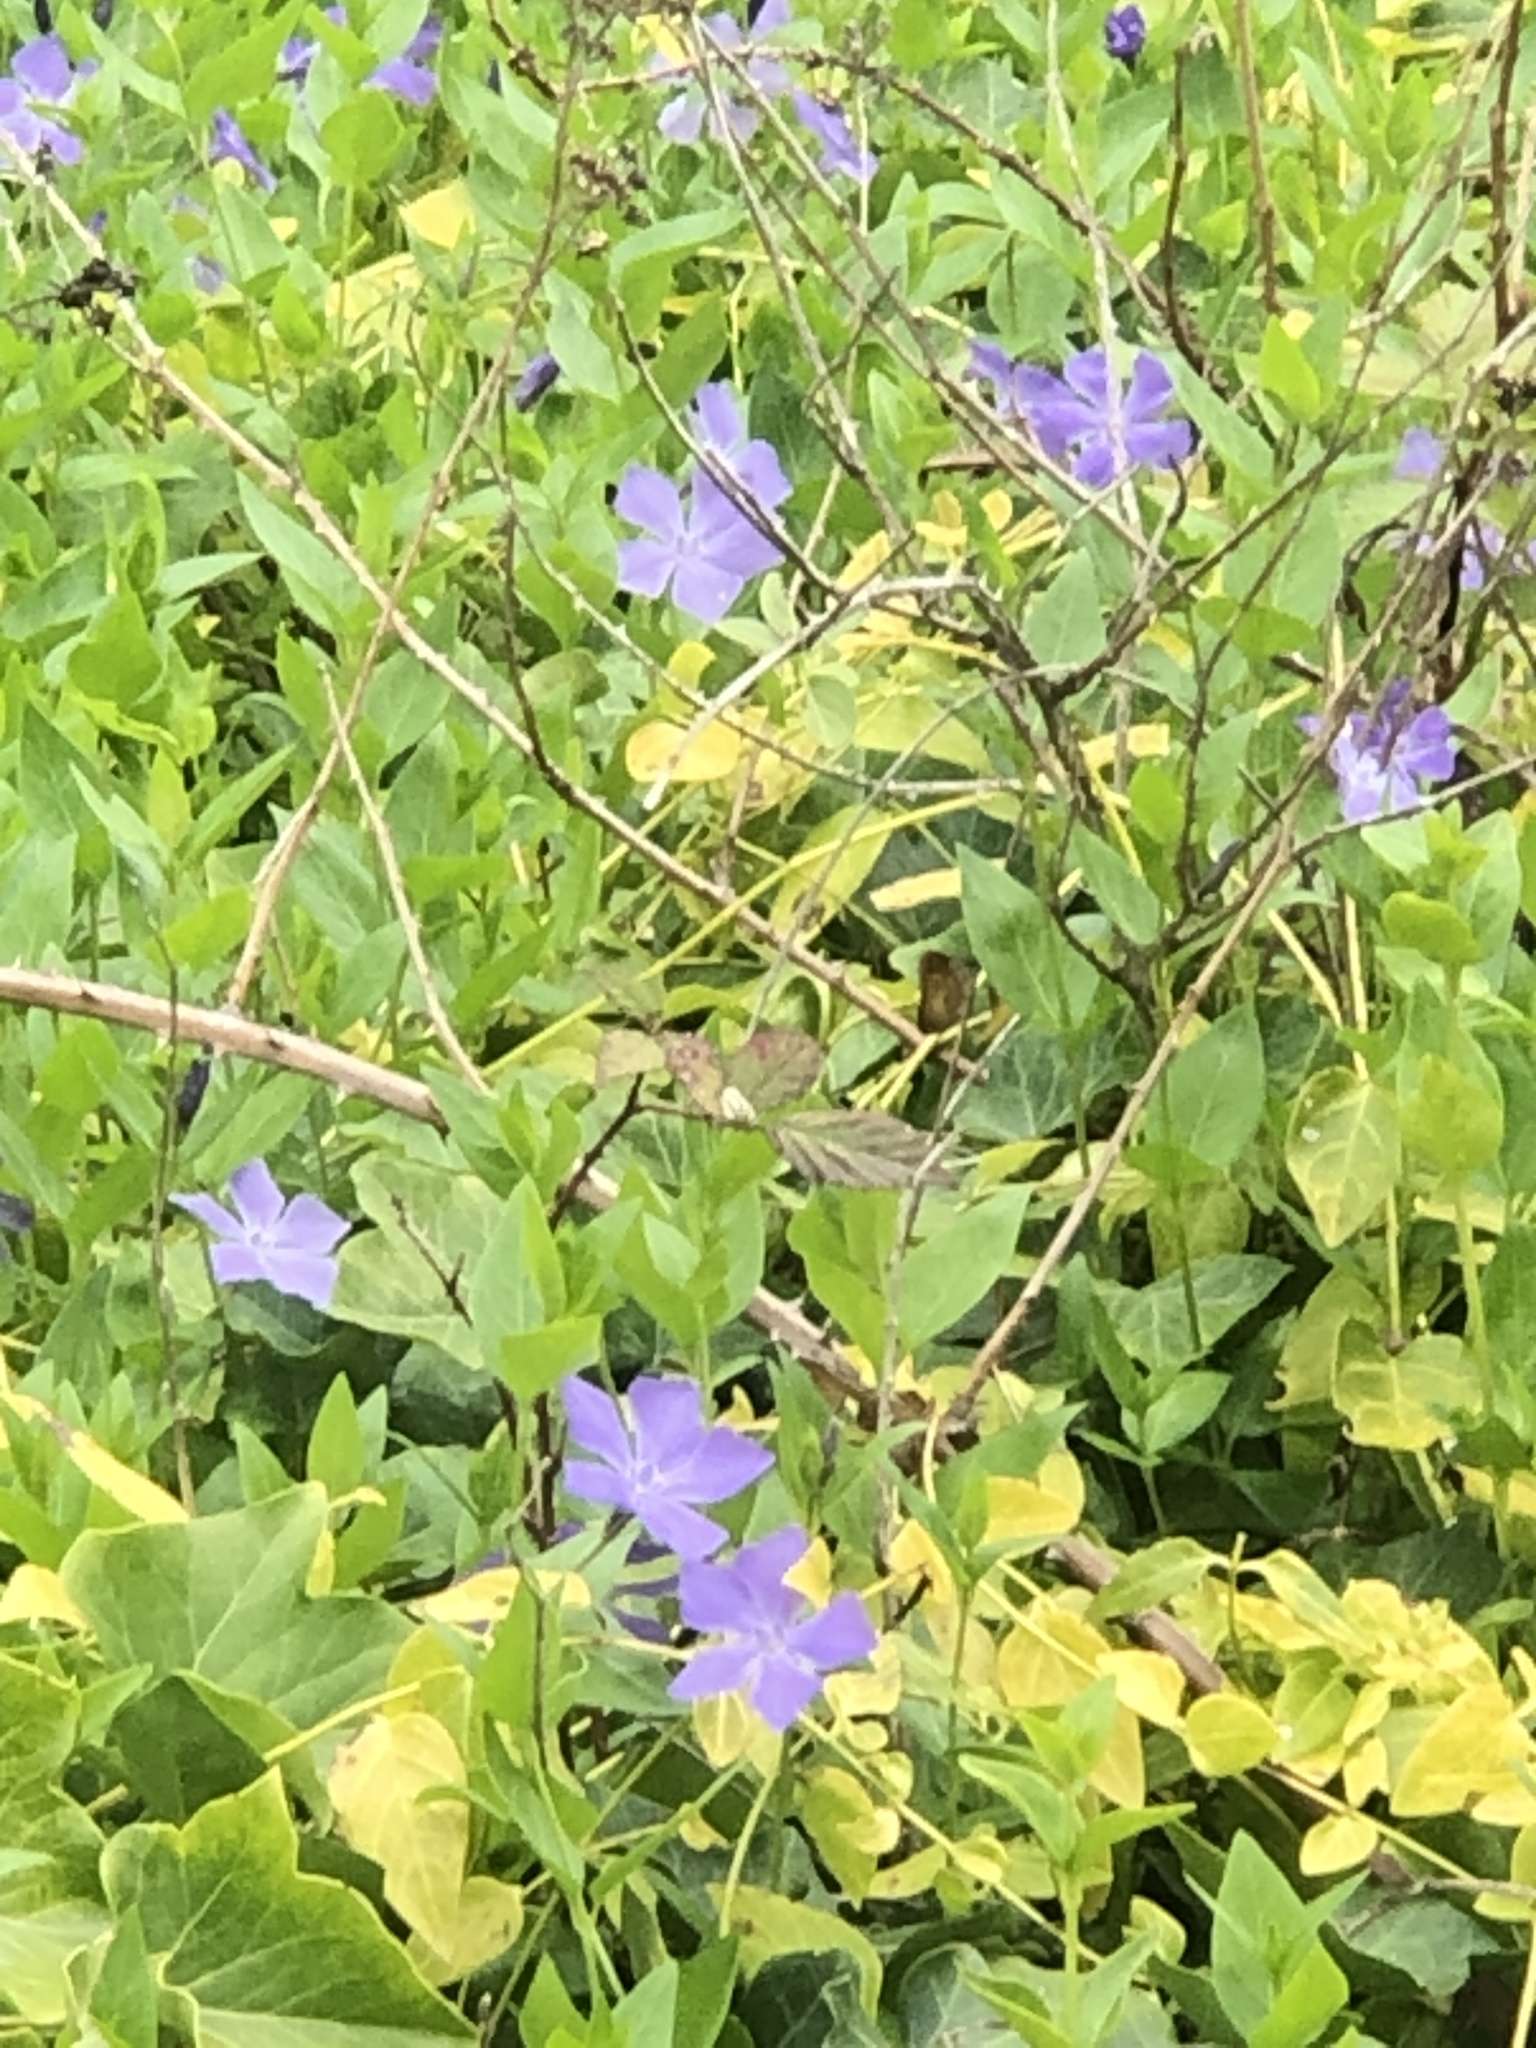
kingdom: Plantae
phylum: Tracheophyta
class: Magnoliopsida
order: Gentianales
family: Apocynaceae
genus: Vinca
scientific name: Vinca major
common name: Greater periwinkle
